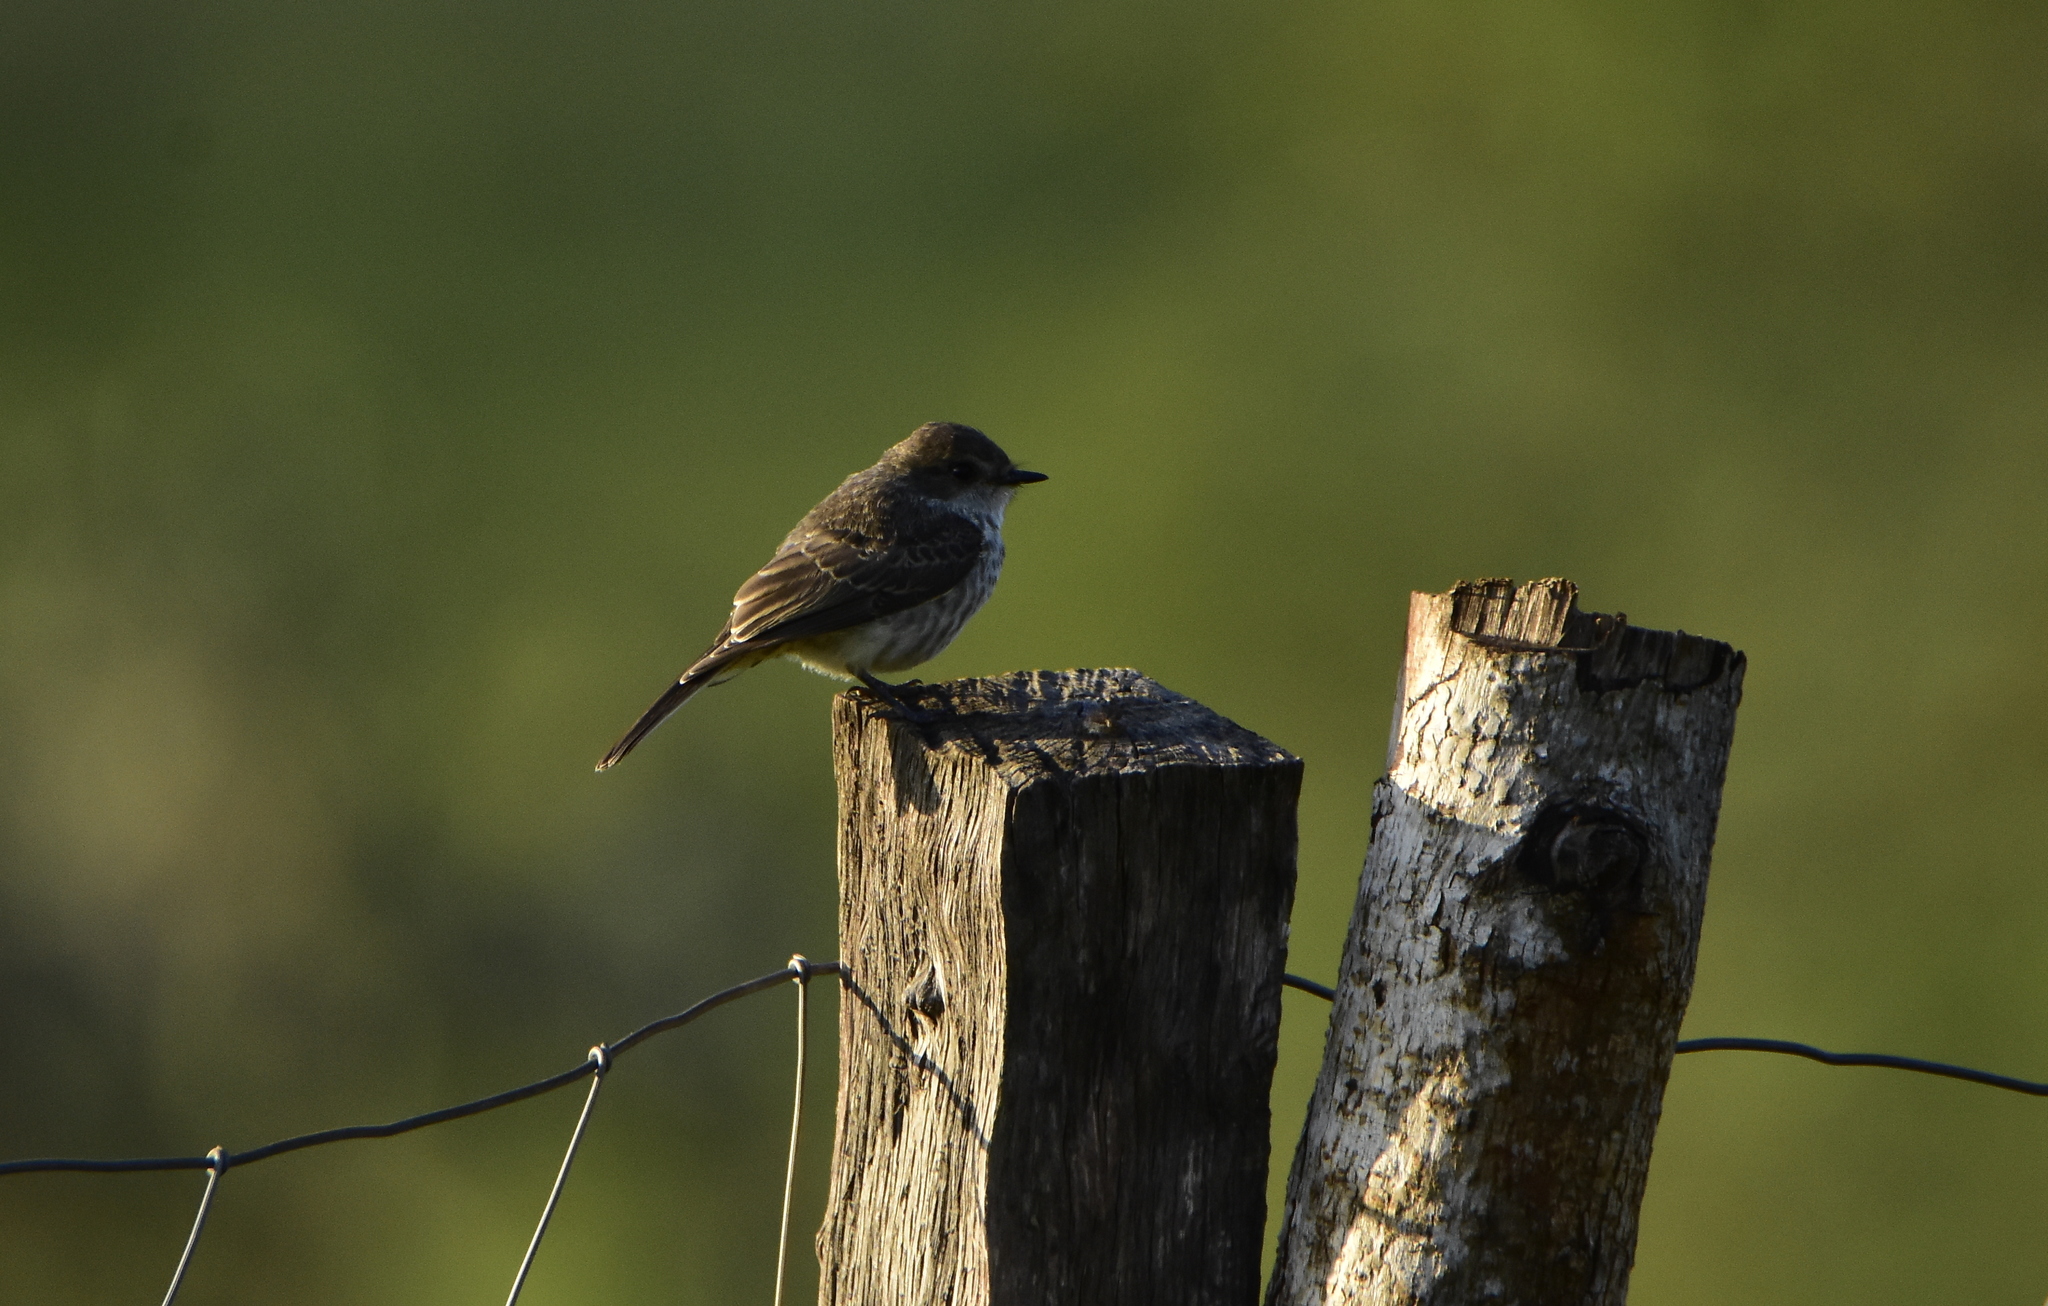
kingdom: Animalia
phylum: Chordata
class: Aves
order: Passeriformes
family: Tyrannidae
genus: Pyrocephalus
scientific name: Pyrocephalus rubinus
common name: Vermilion flycatcher
